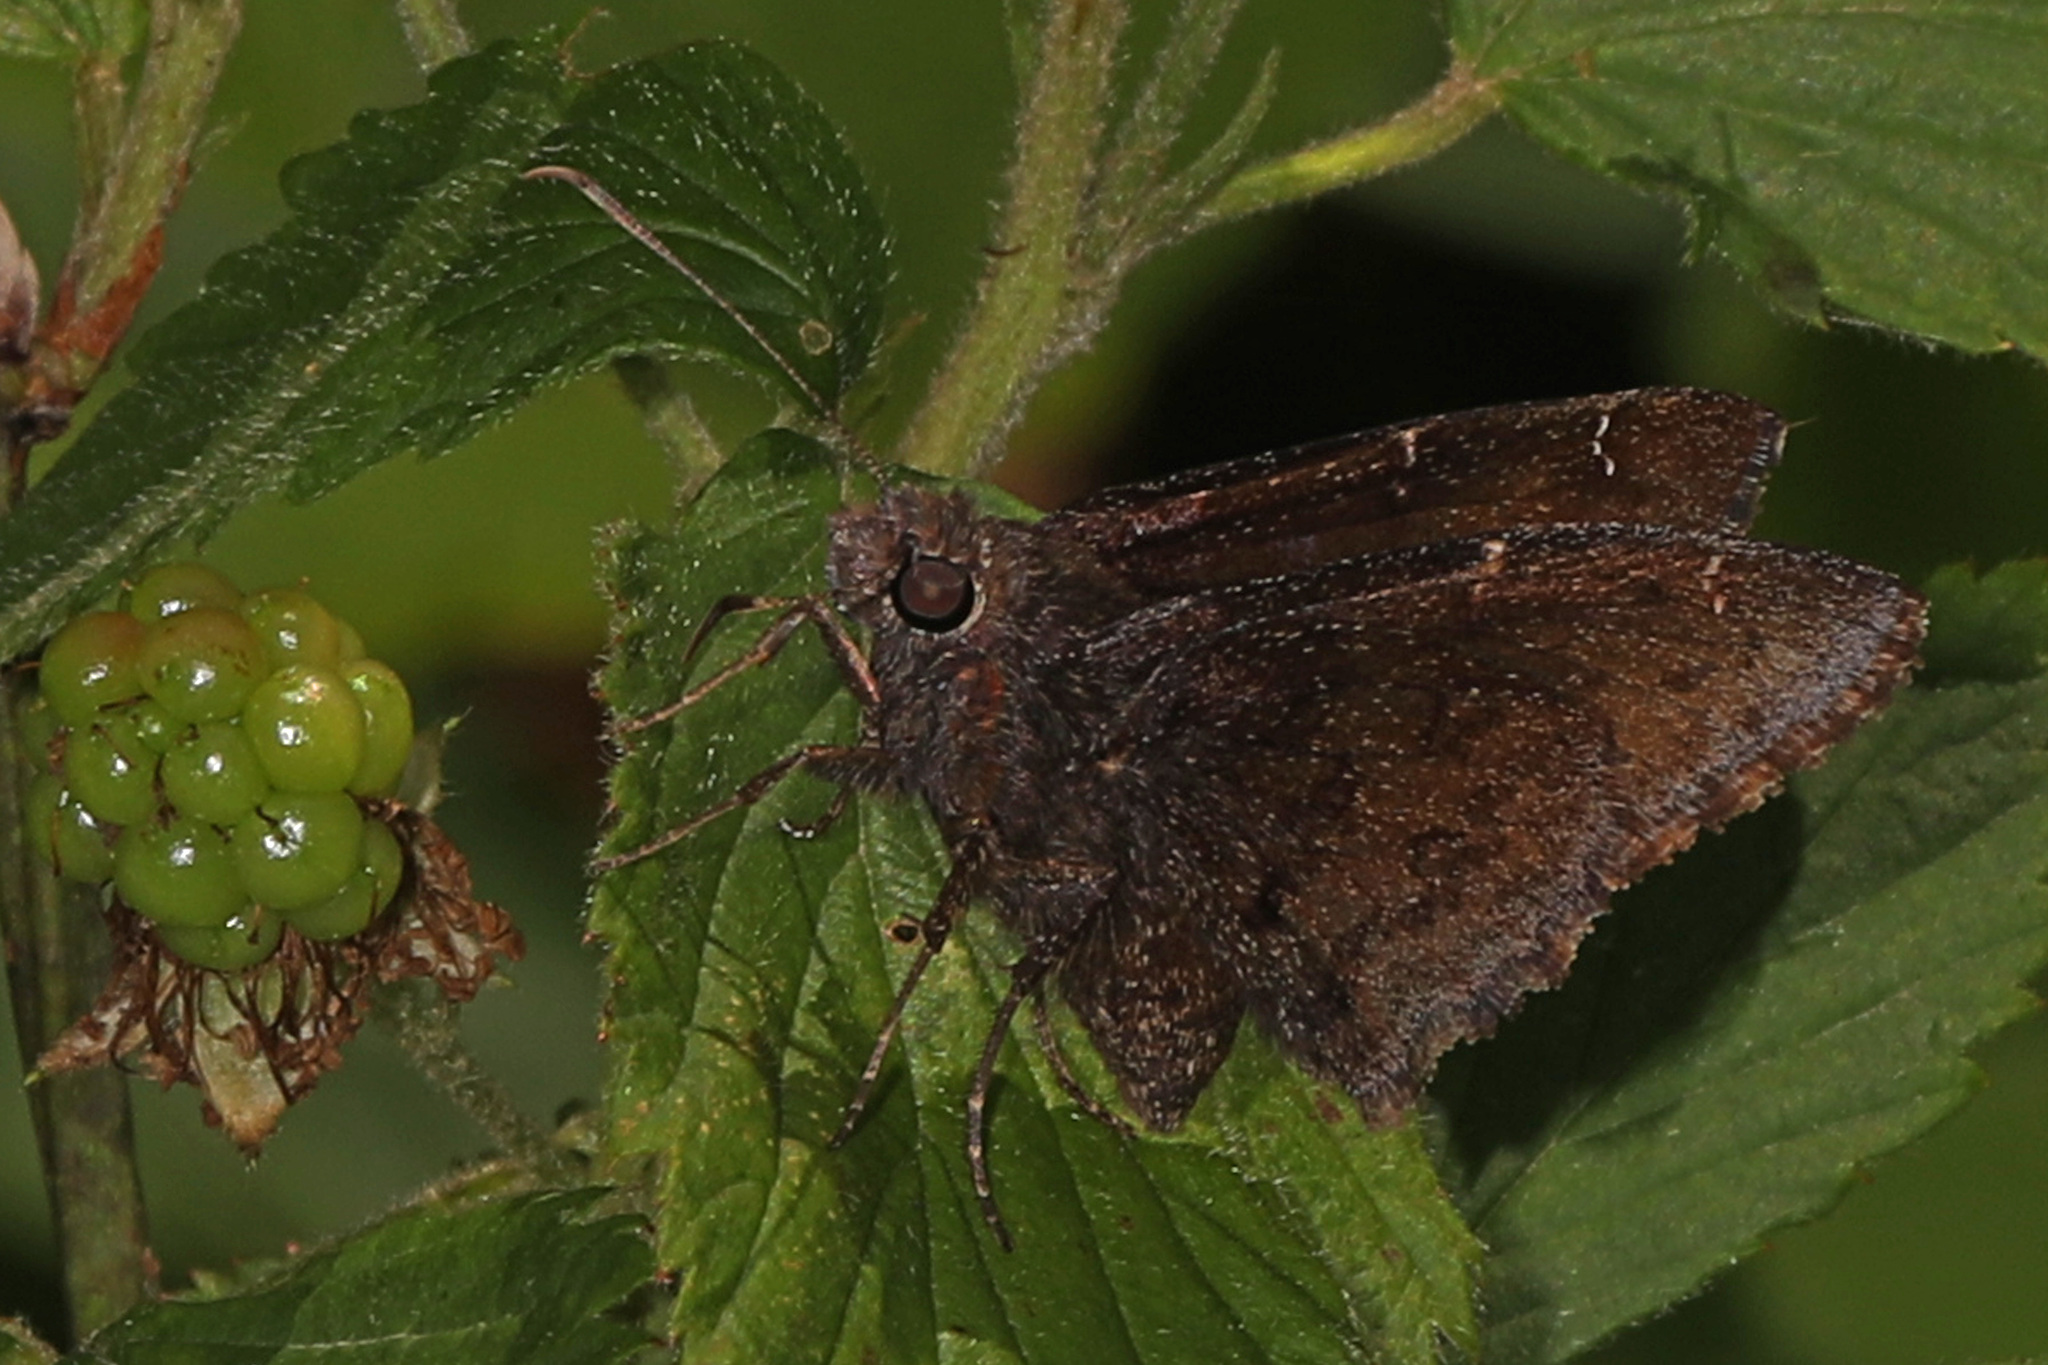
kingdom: Animalia
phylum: Arthropoda
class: Insecta
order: Lepidoptera
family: Hesperiidae
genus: Thorybes
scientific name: Thorybes pylades
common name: Northern cloudywing
